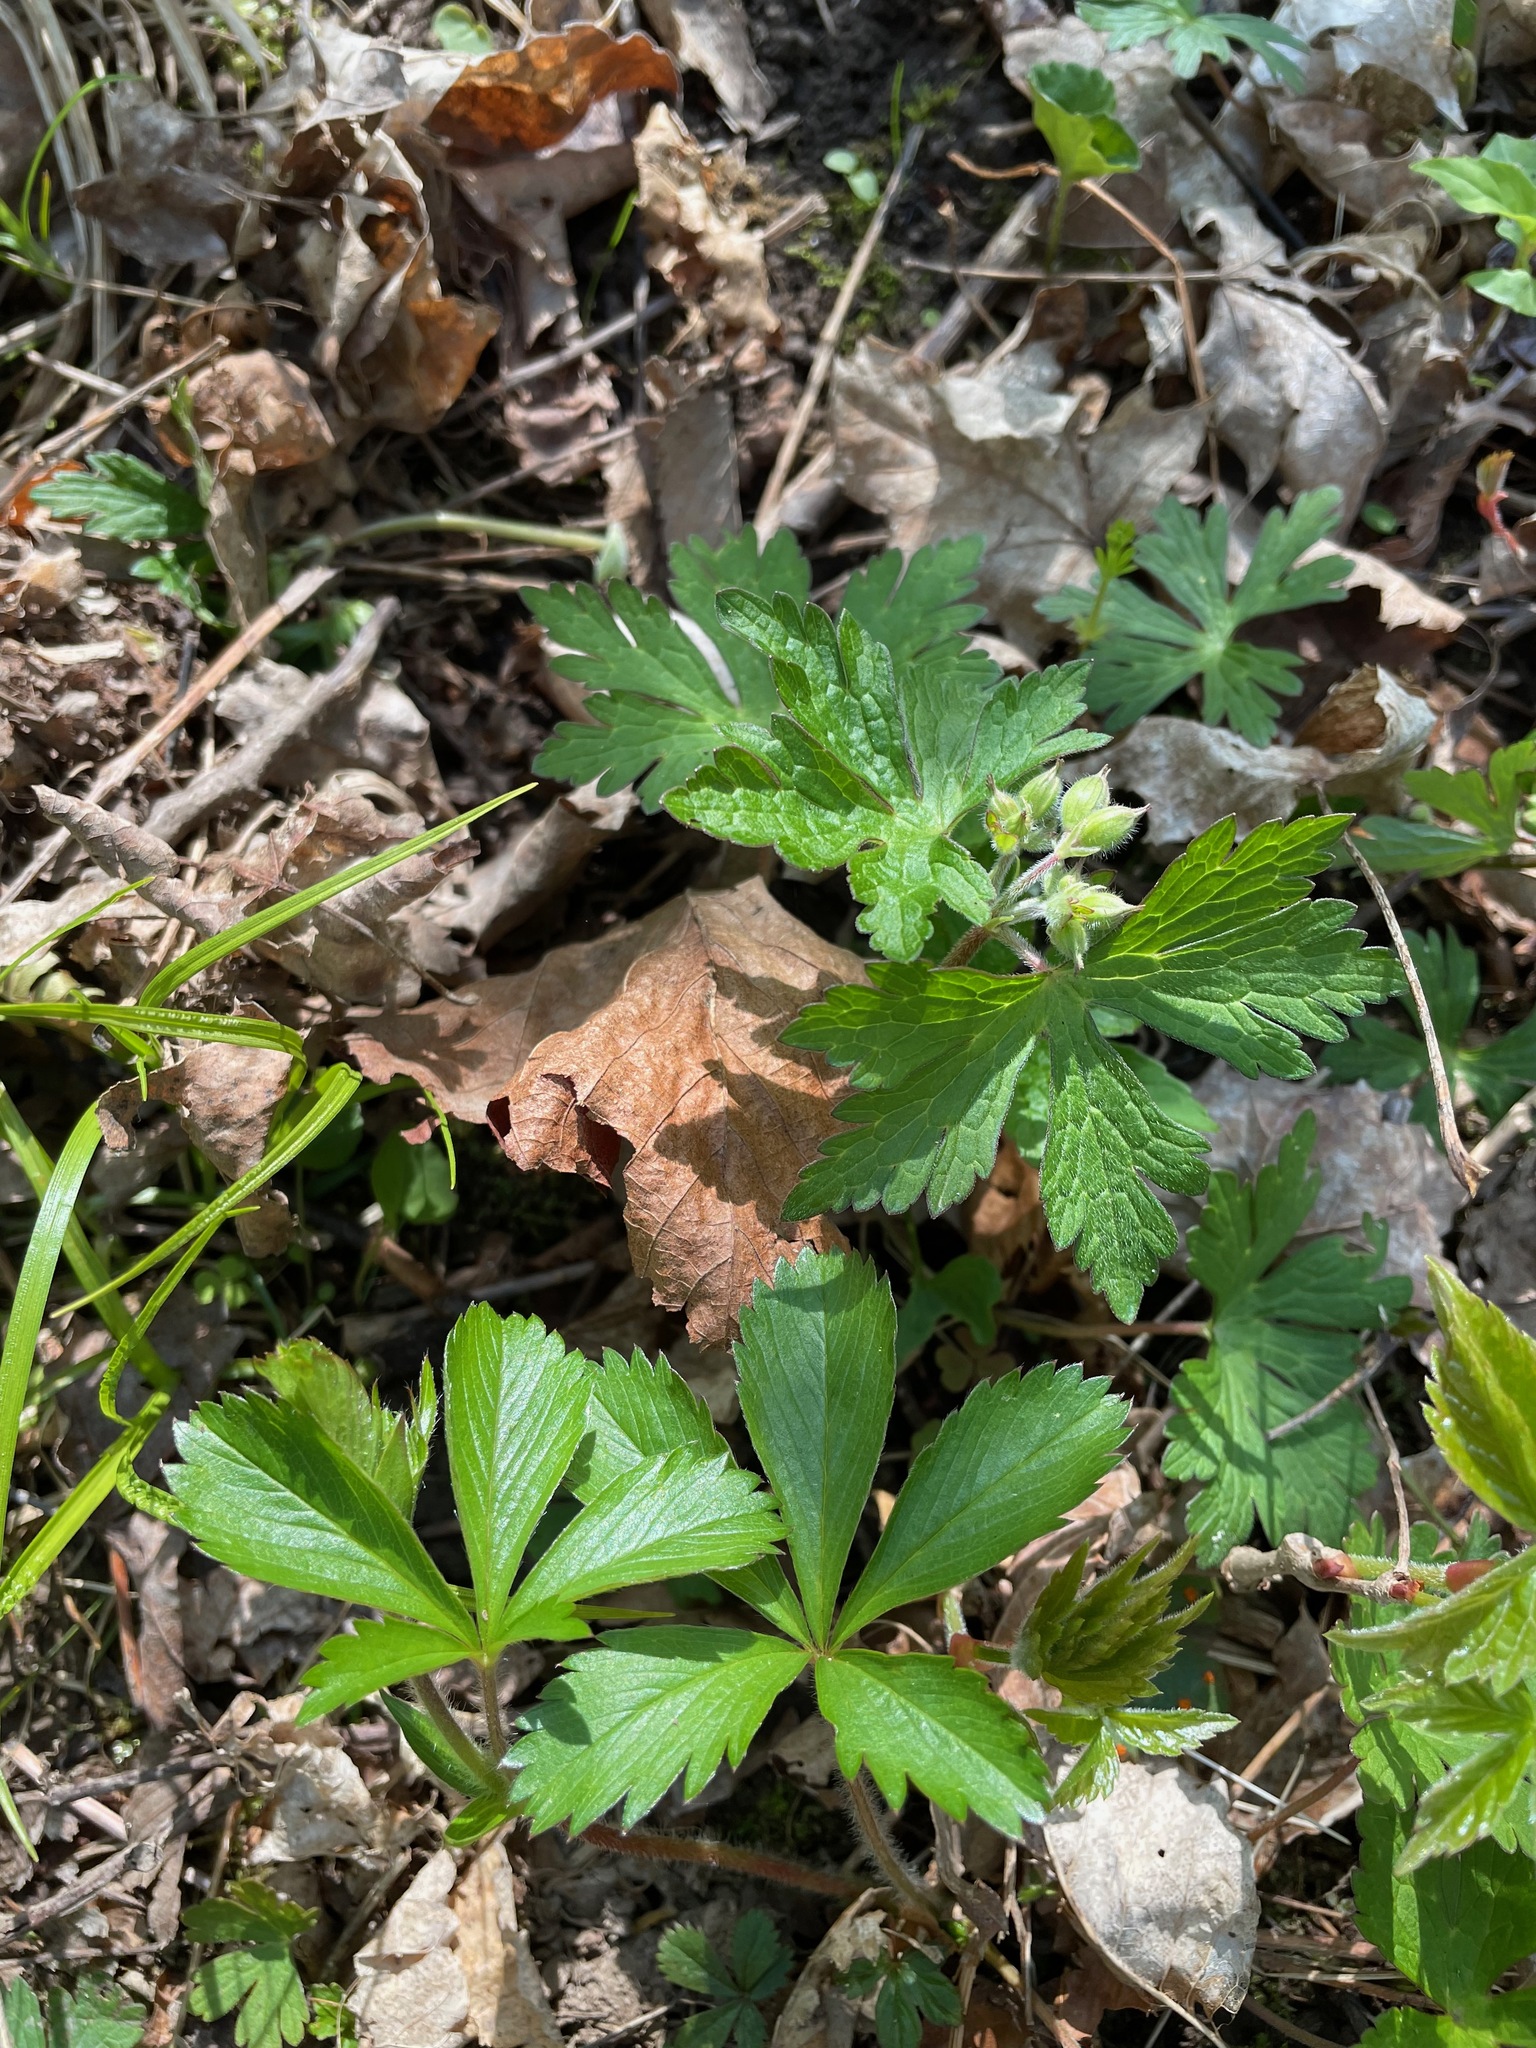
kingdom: Plantae
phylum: Tracheophyta
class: Magnoliopsida
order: Geraniales
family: Geraniaceae
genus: Geranium
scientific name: Geranium maculatum
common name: Spotted geranium
